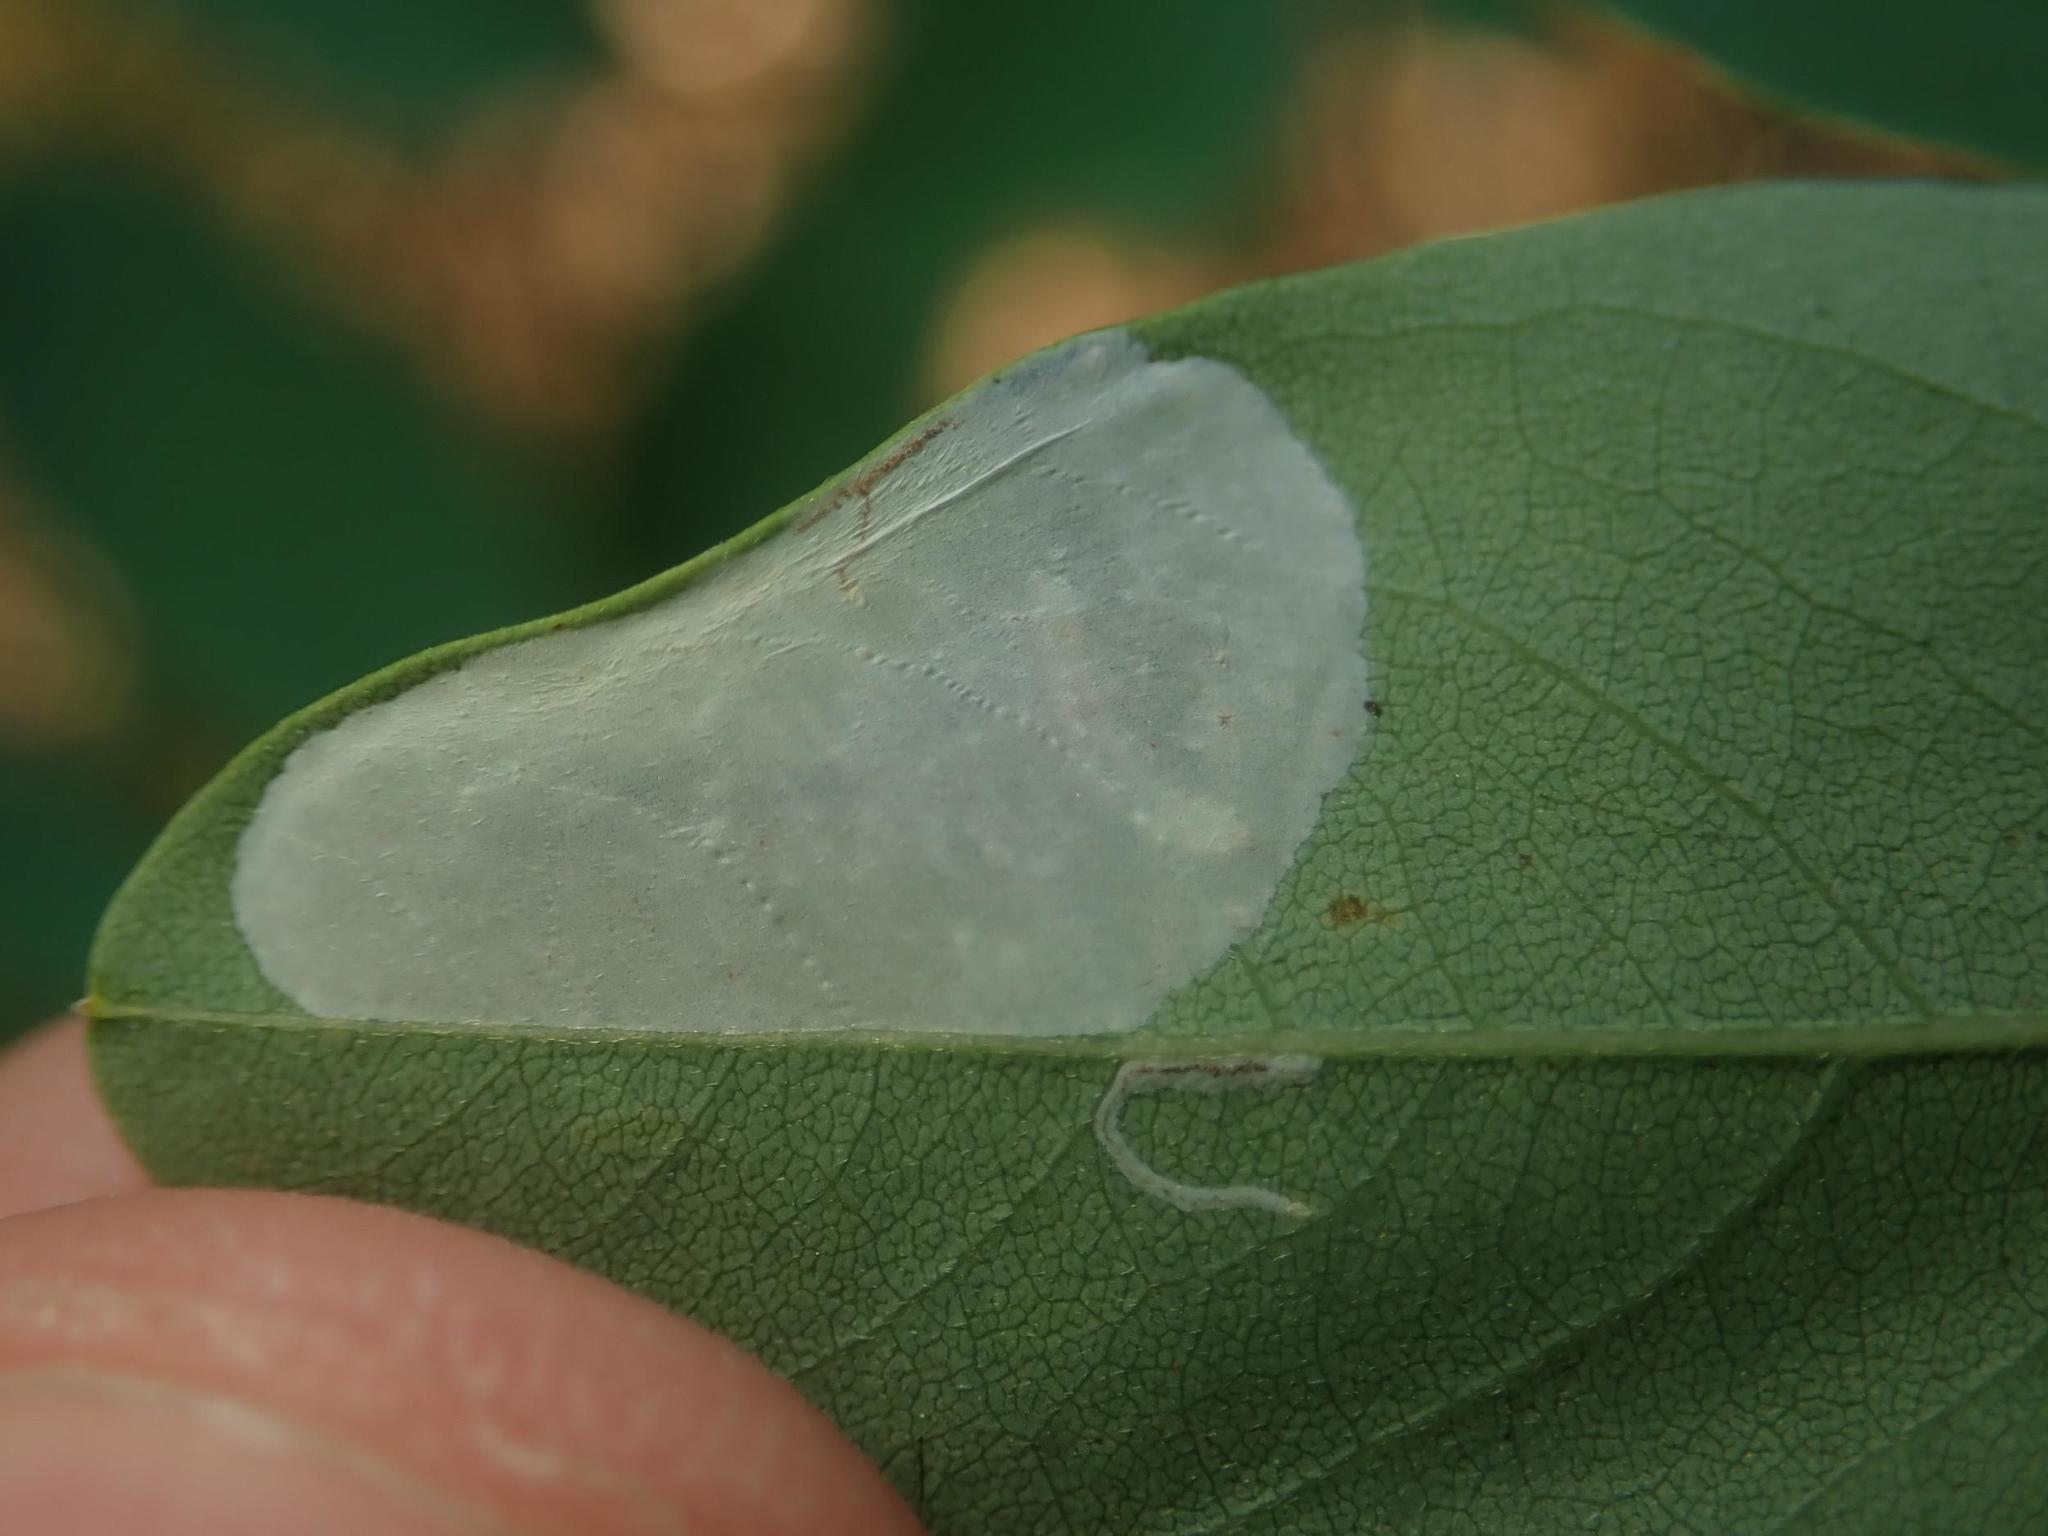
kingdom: Animalia
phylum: Arthropoda
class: Insecta
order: Lepidoptera
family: Gracillariidae
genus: Macrosaccus
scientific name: Macrosaccus robiniella
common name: Leaf blotch miner moth
